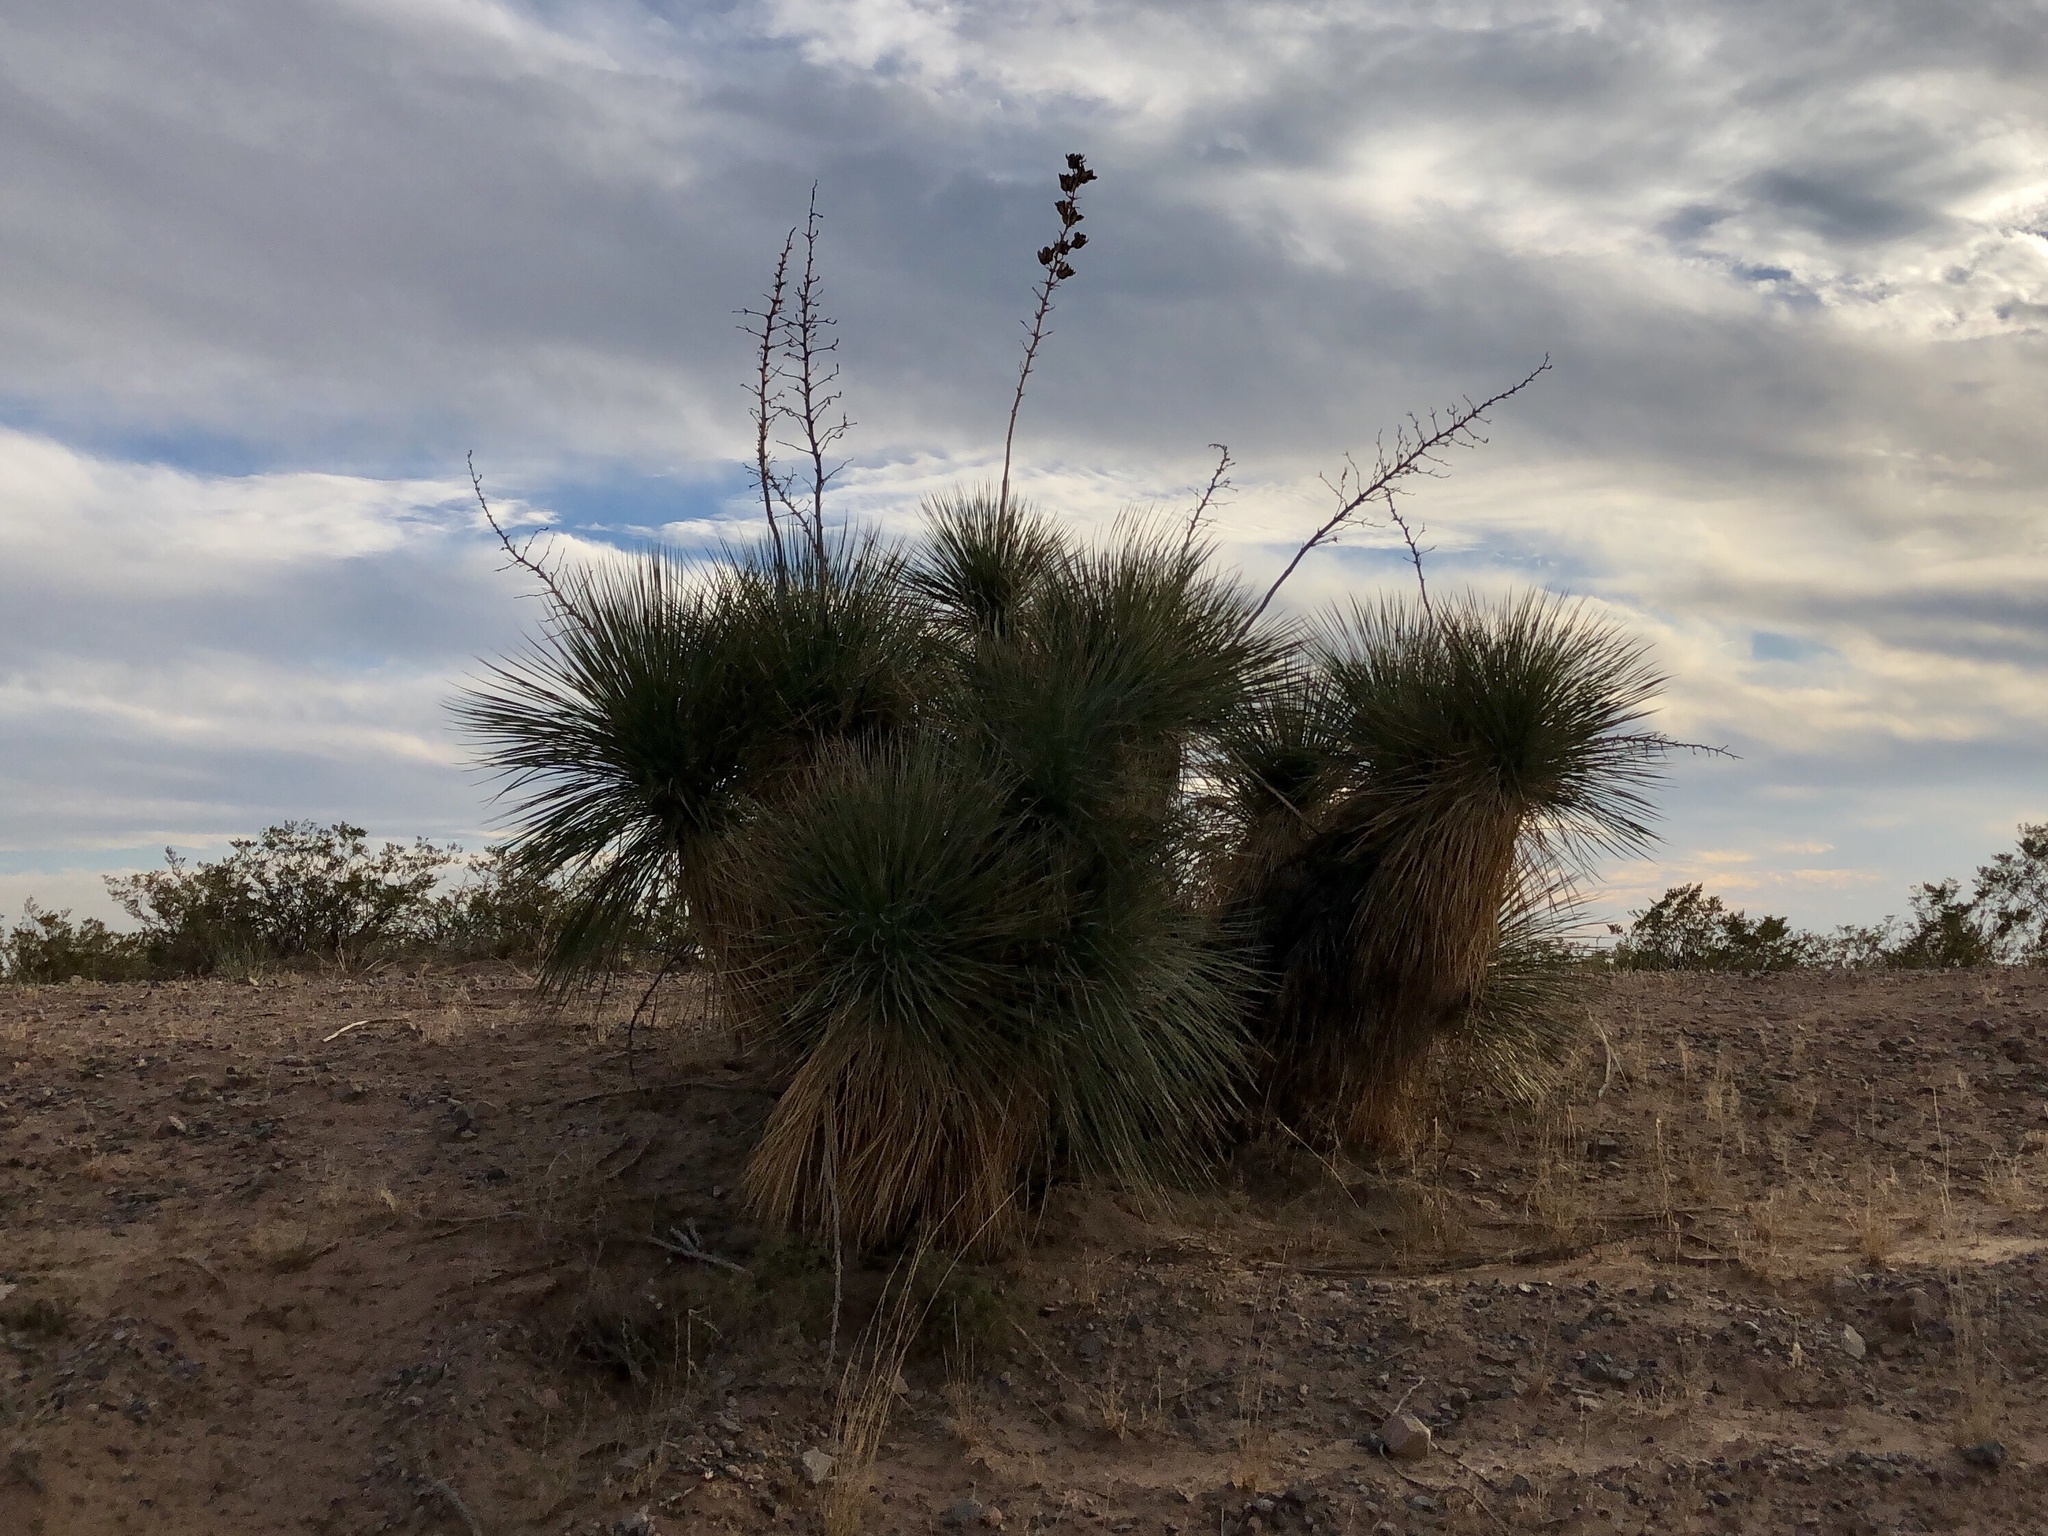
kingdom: Plantae
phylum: Tracheophyta
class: Liliopsida
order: Asparagales
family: Asparagaceae
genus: Yucca
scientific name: Yucca elata
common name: Palmella
